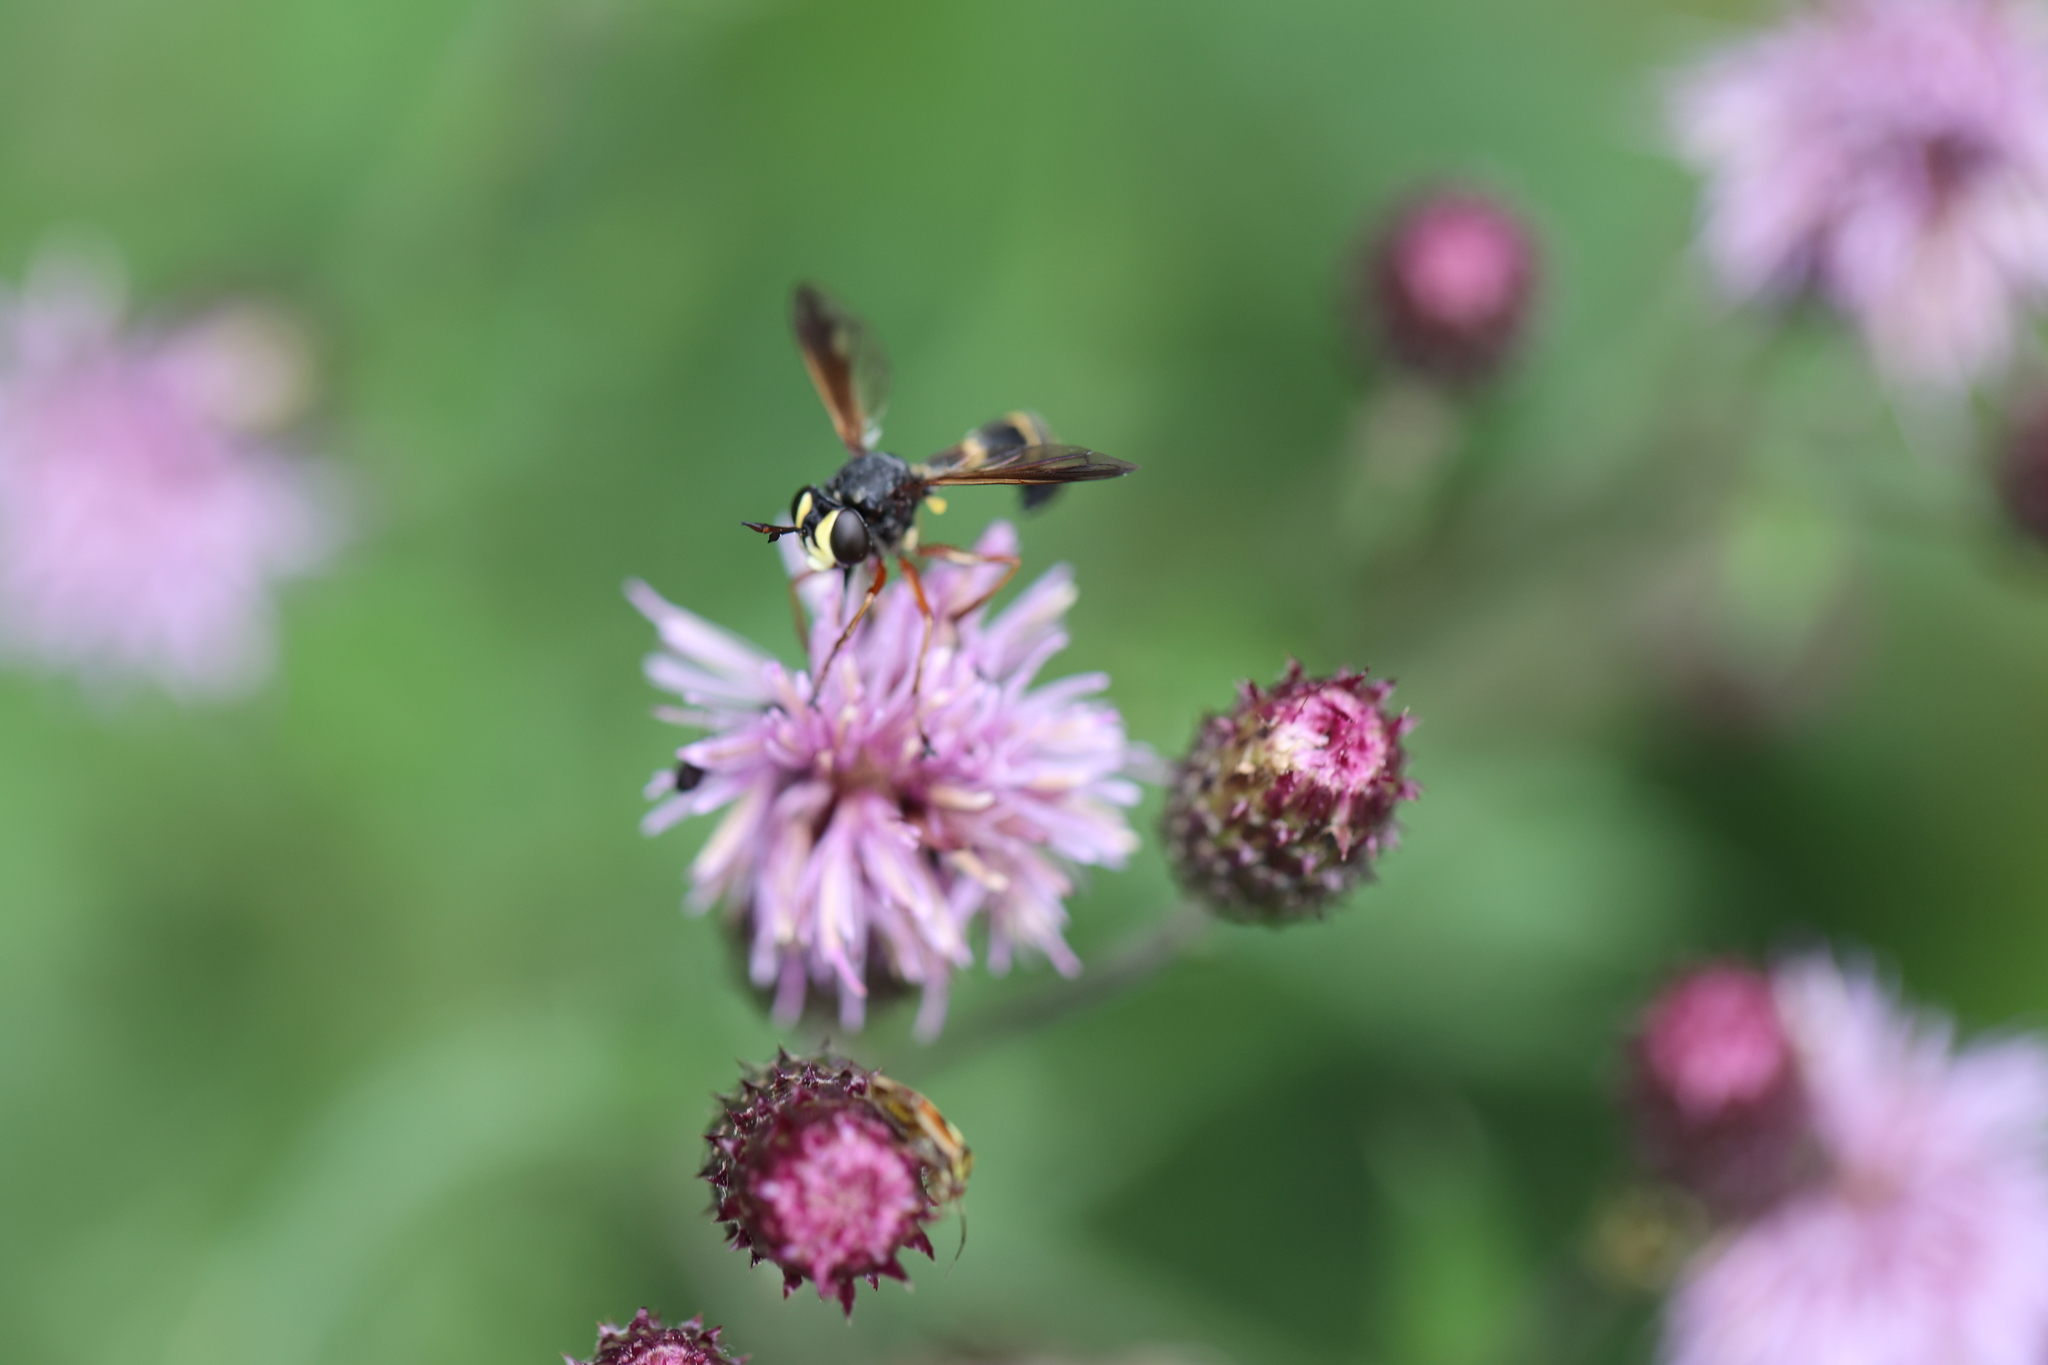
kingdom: Animalia
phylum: Arthropoda
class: Insecta
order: Diptera
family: Conopidae
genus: Physocephala
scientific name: Physocephala rufipes
